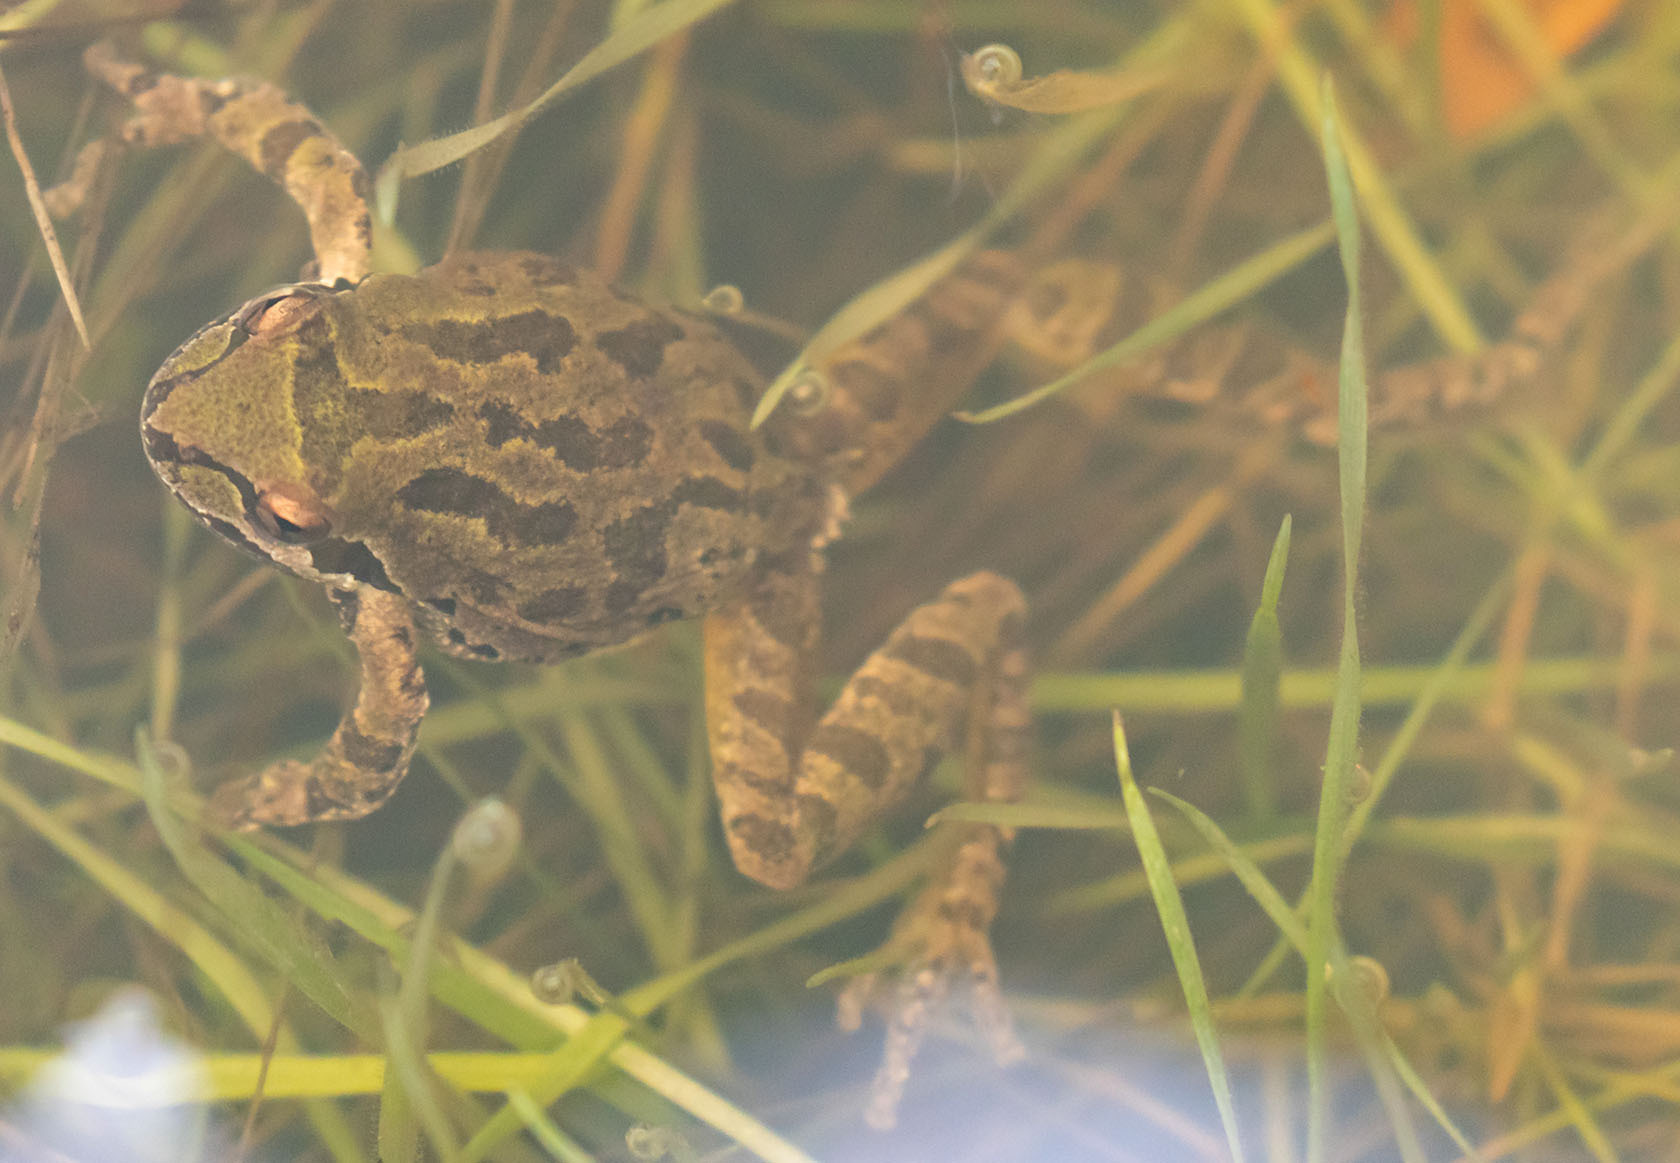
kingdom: Animalia
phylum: Chordata
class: Amphibia
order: Anura
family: Hylidae
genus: Pseudacris
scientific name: Pseudacris regilla
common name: Pacific chorus frog
